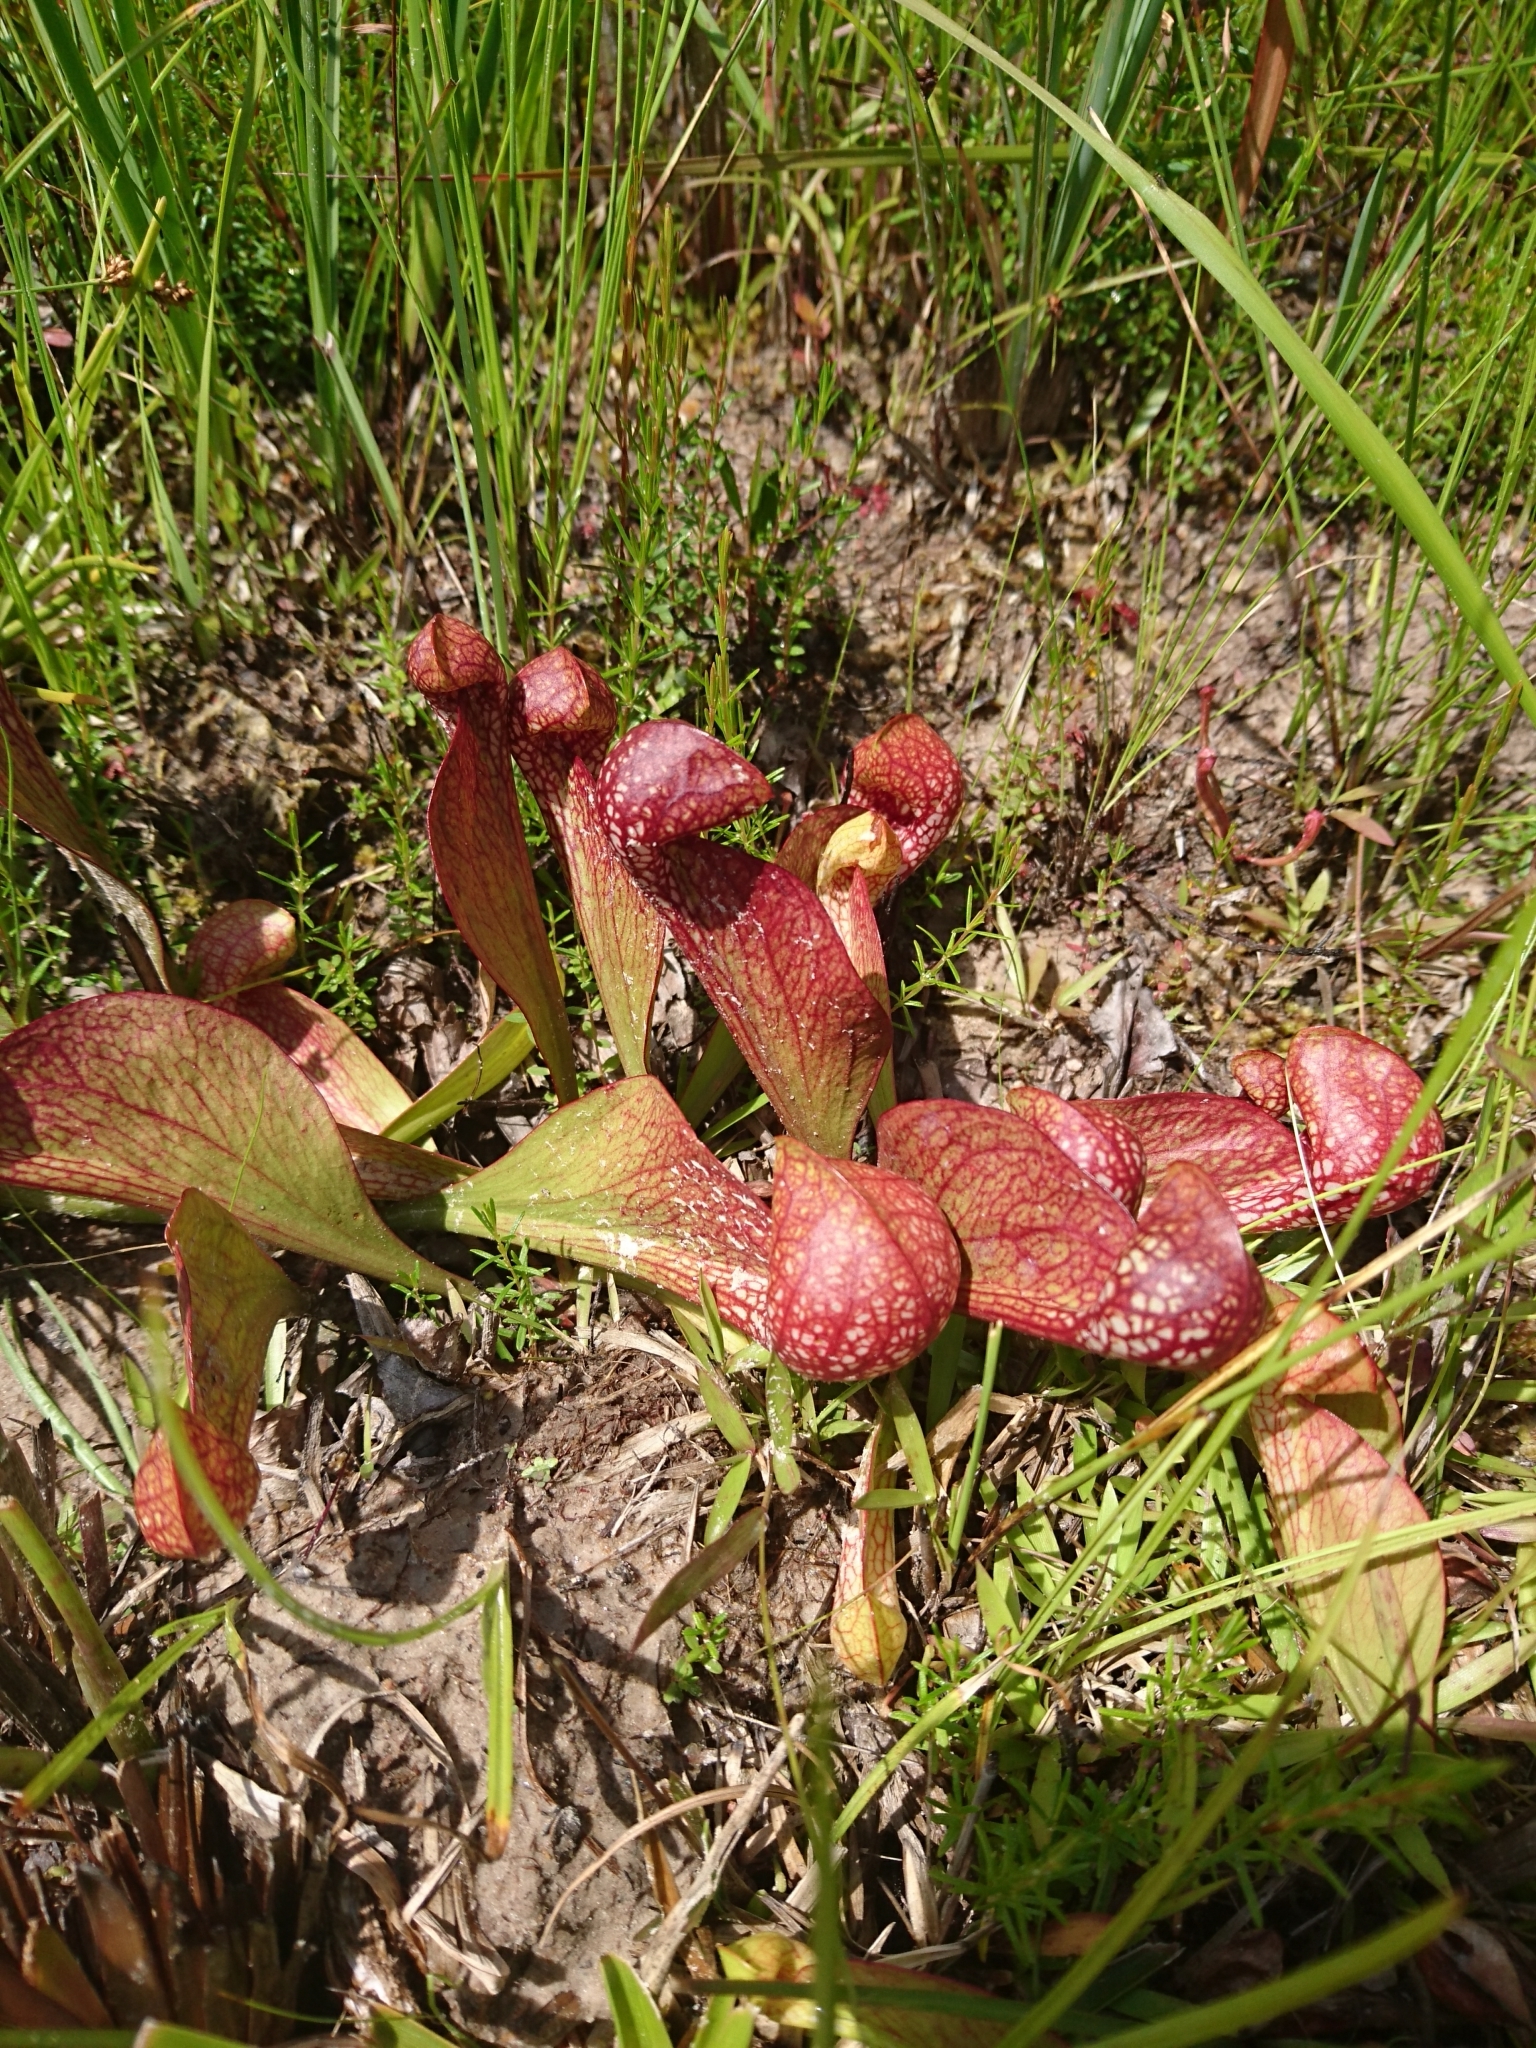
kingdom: Plantae
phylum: Tracheophyta
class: Magnoliopsida
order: Ericales
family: Sarraceniaceae
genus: Sarracenia
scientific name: Sarracenia psittacina
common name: Parrot pitcherplant
